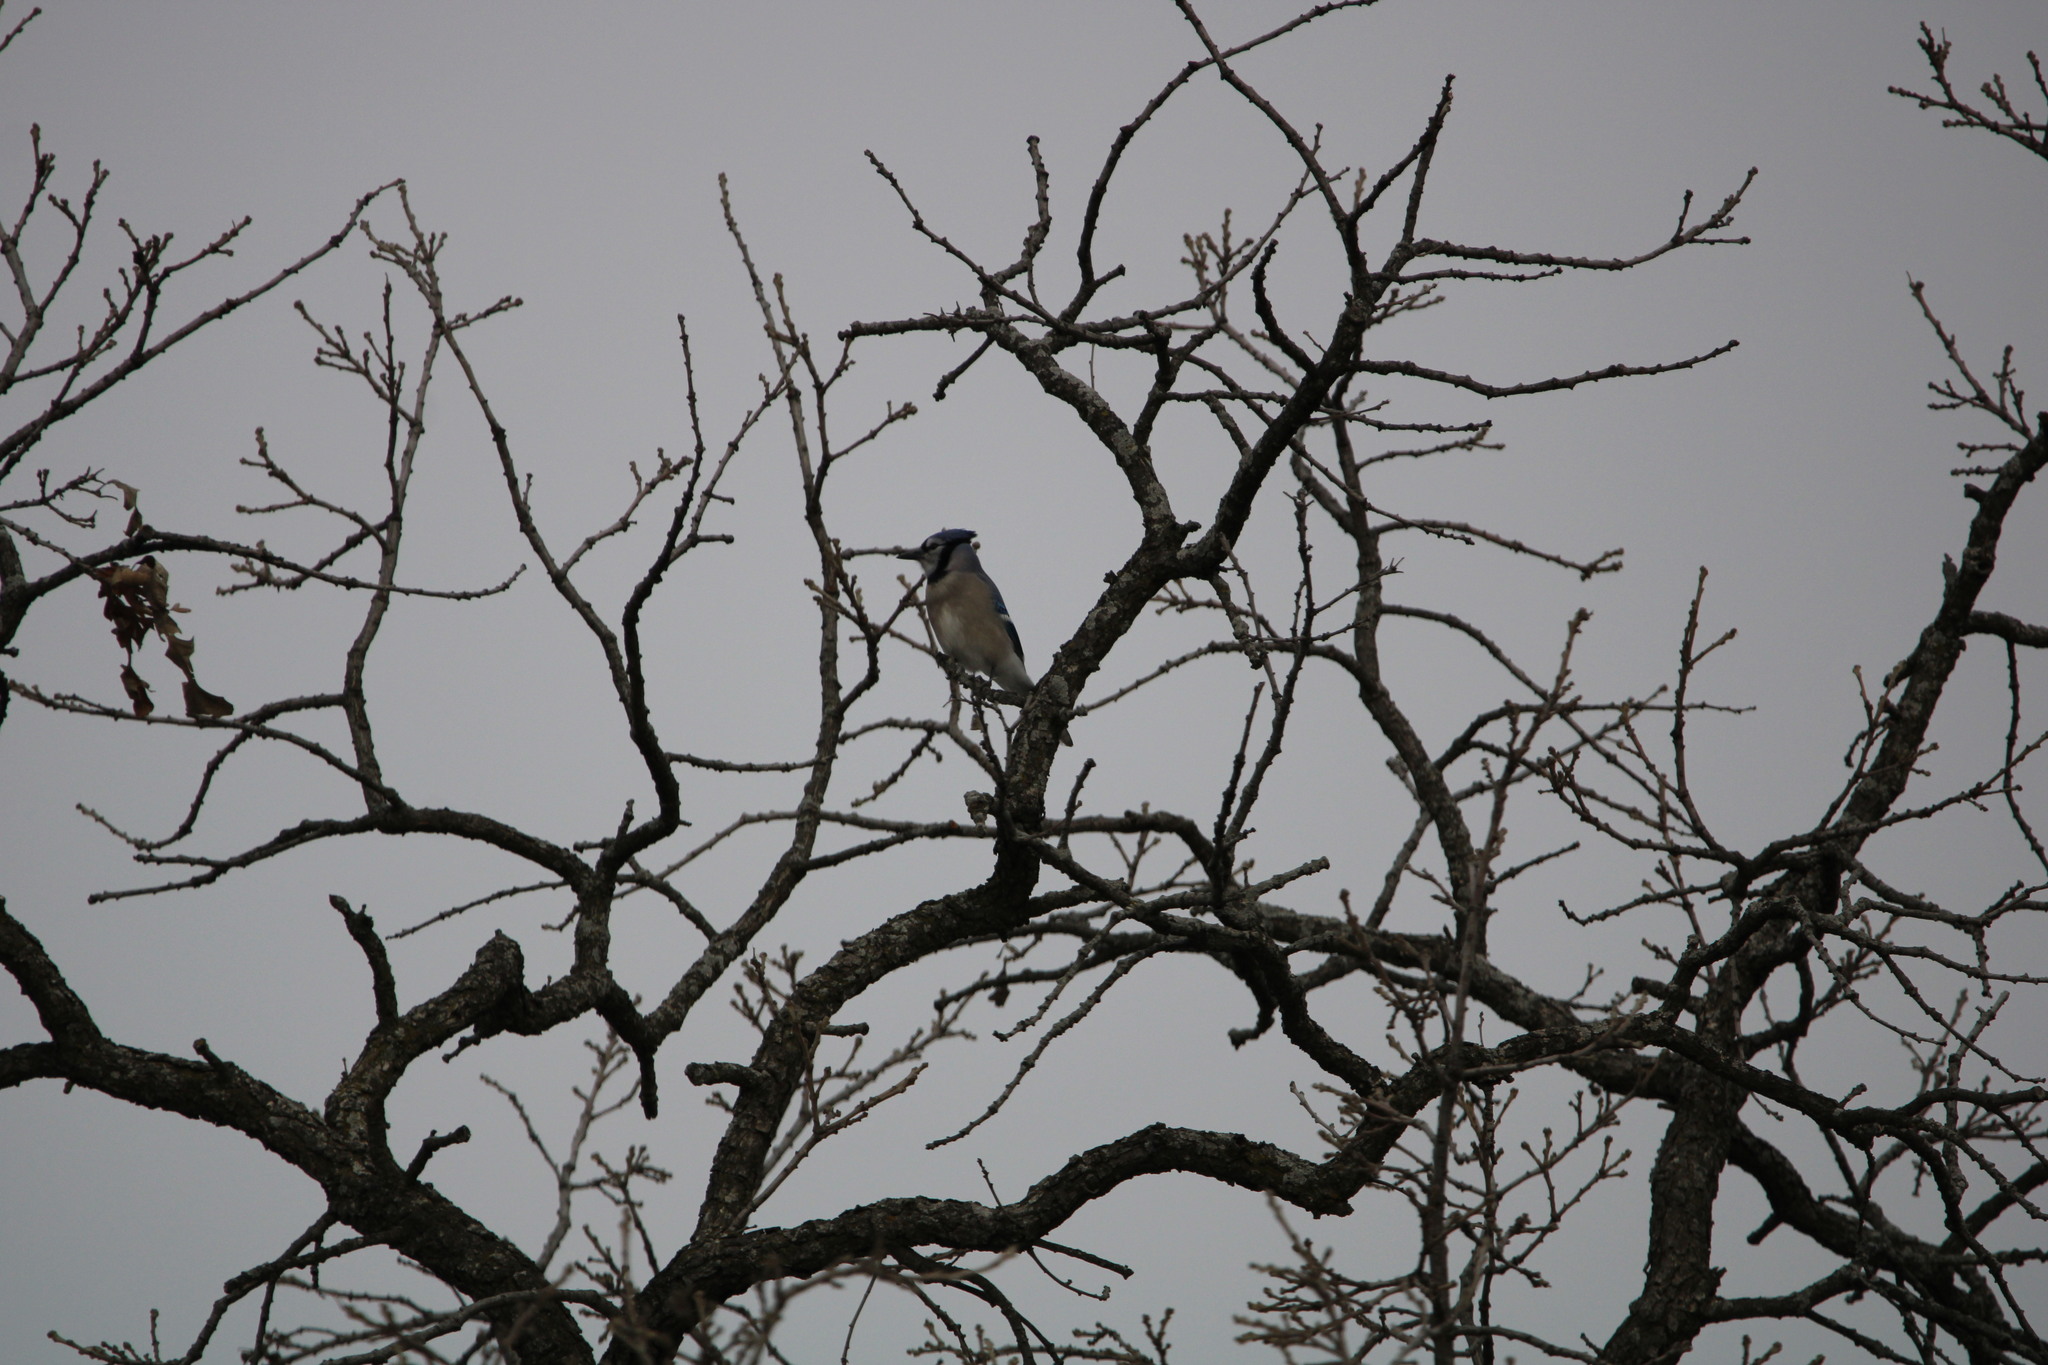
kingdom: Animalia
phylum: Chordata
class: Aves
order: Passeriformes
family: Corvidae
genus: Cyanocitta
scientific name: Cyanocitta cristata
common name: Blue jay
